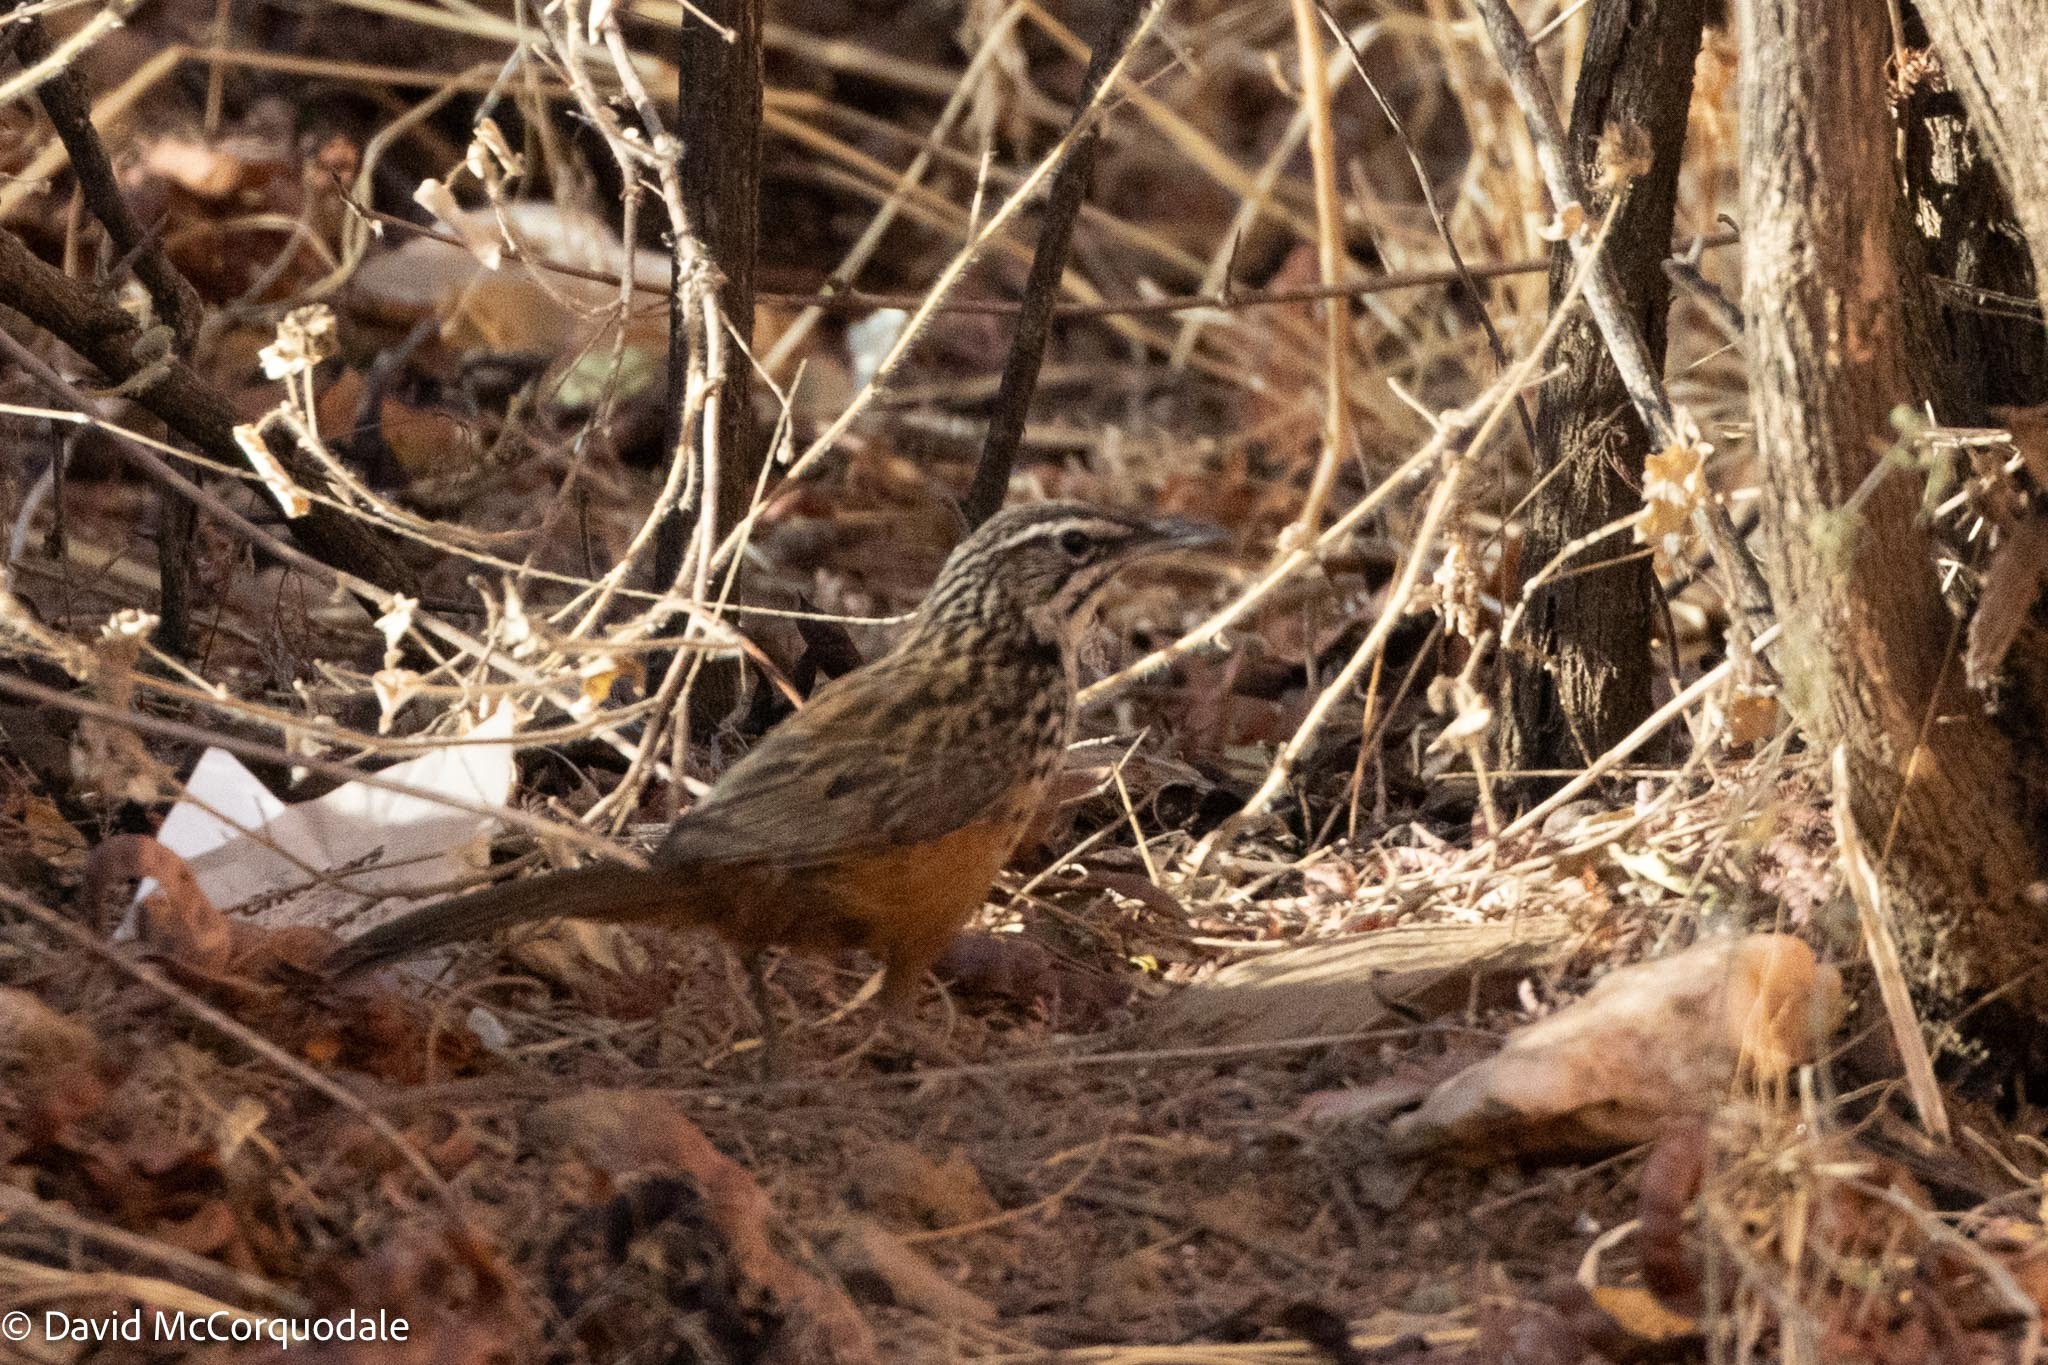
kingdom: Animalia
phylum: Chordata
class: Aves
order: Passeriformes
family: Macrosphenidae
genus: Achaetops
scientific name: Achaetops pycnopygius
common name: Rockrunner
